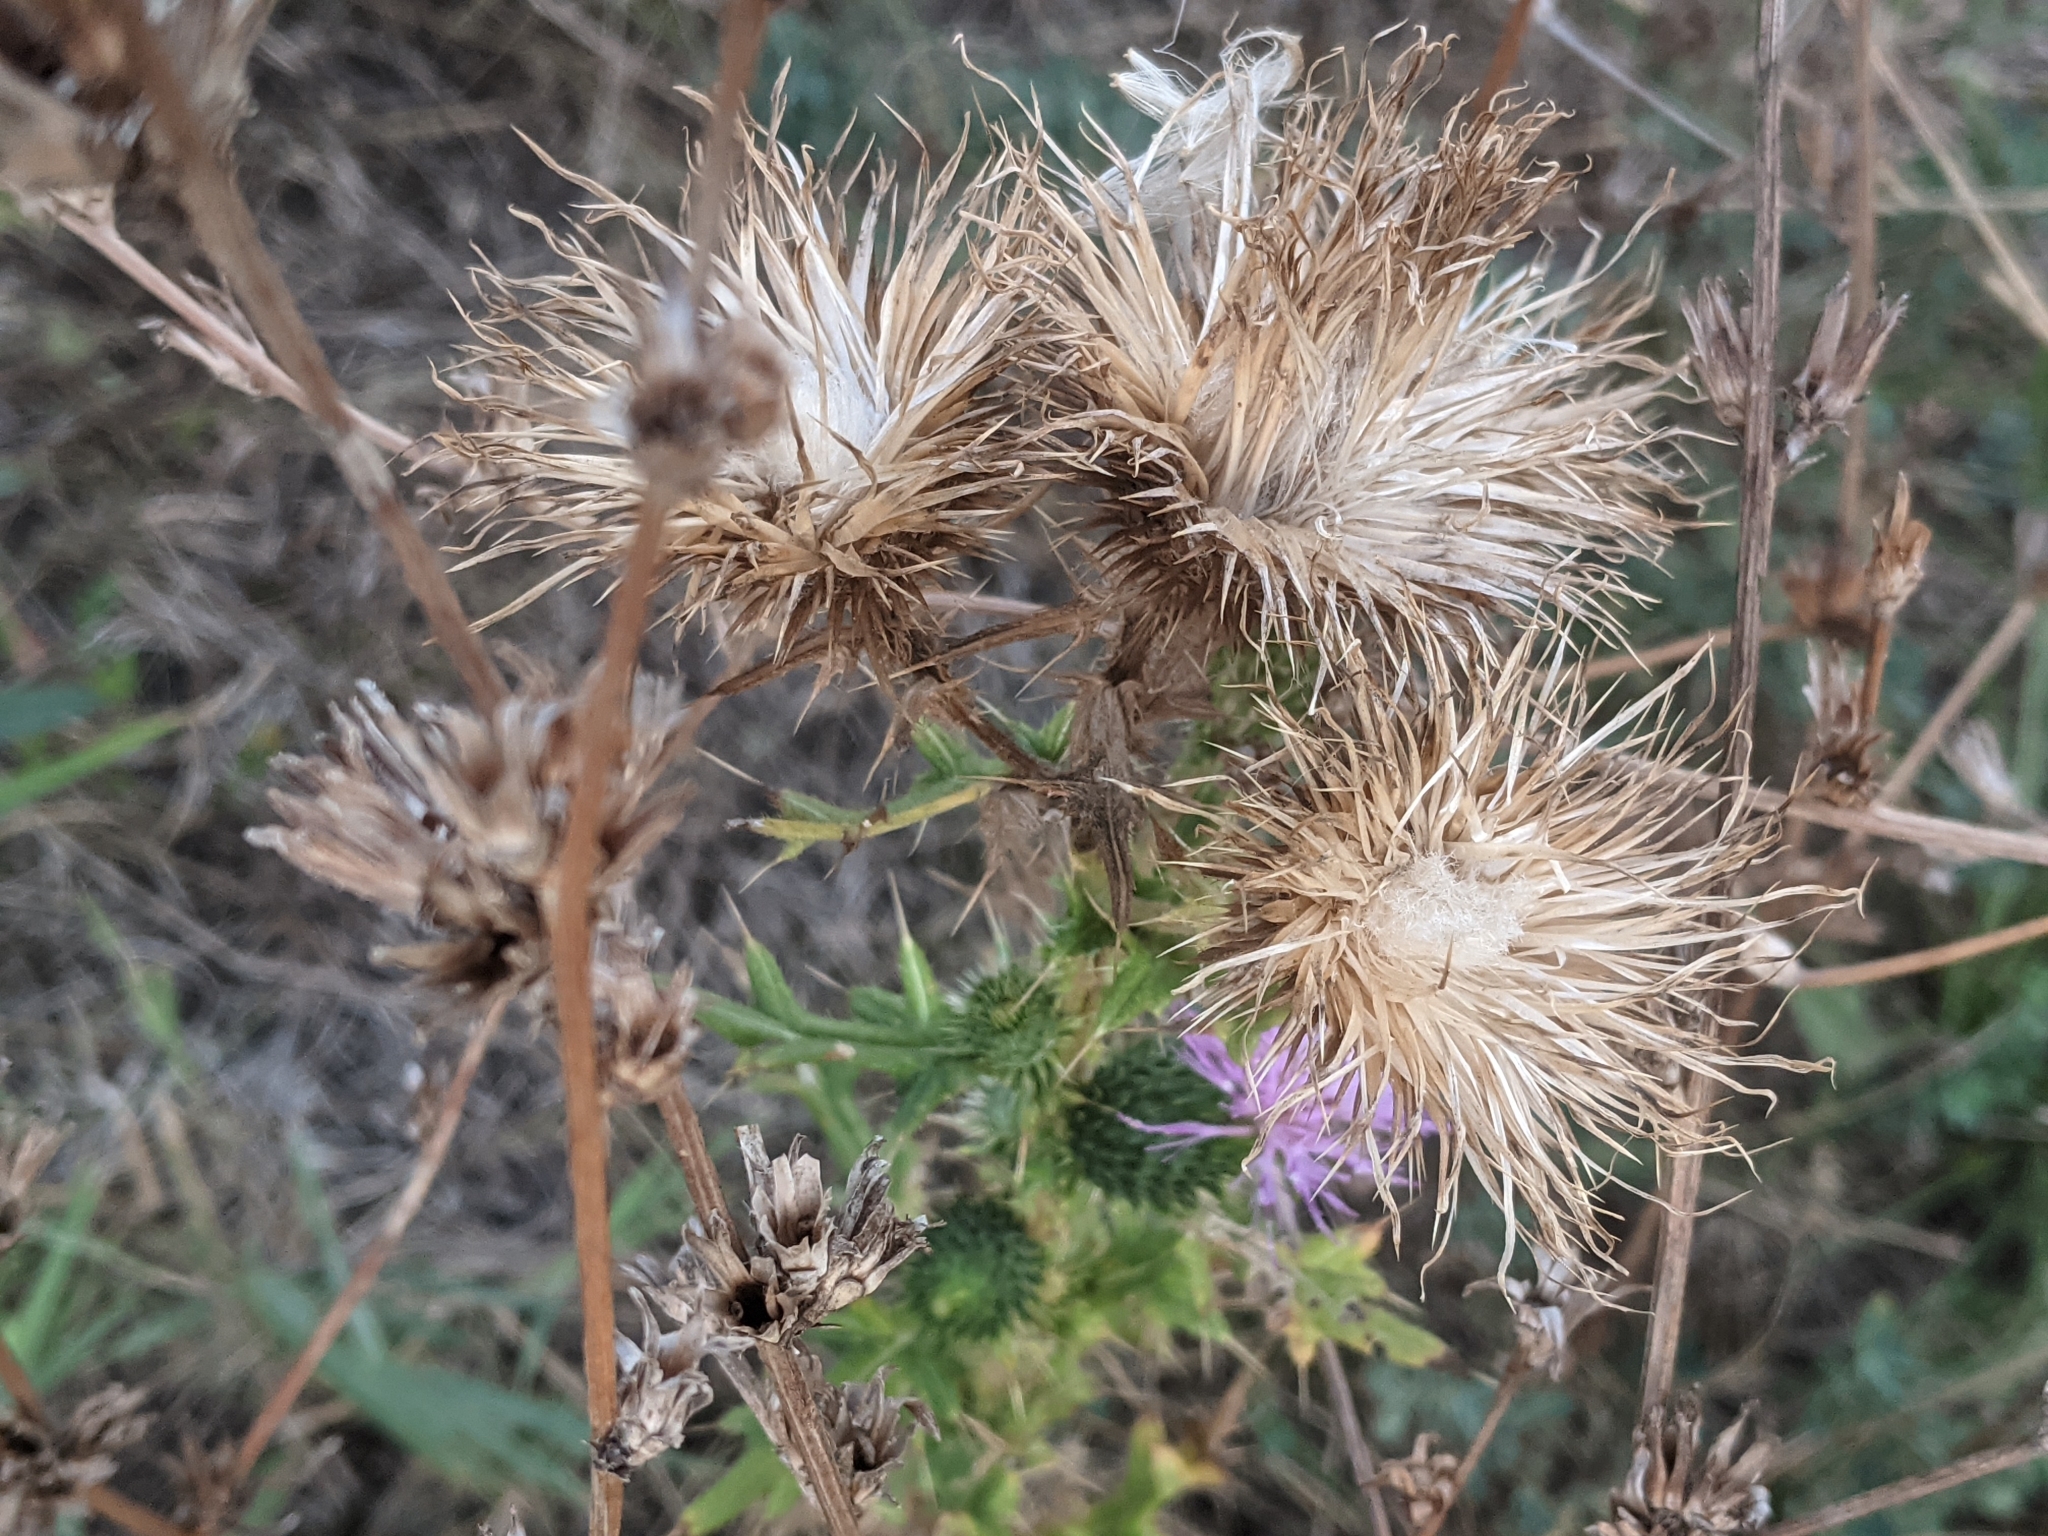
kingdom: Plantae
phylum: Tracheophyta
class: Magnoliopsida
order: Asterales
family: Asteraceae
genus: Cirsium
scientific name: Cirsium vulgare
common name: Bull thistle
